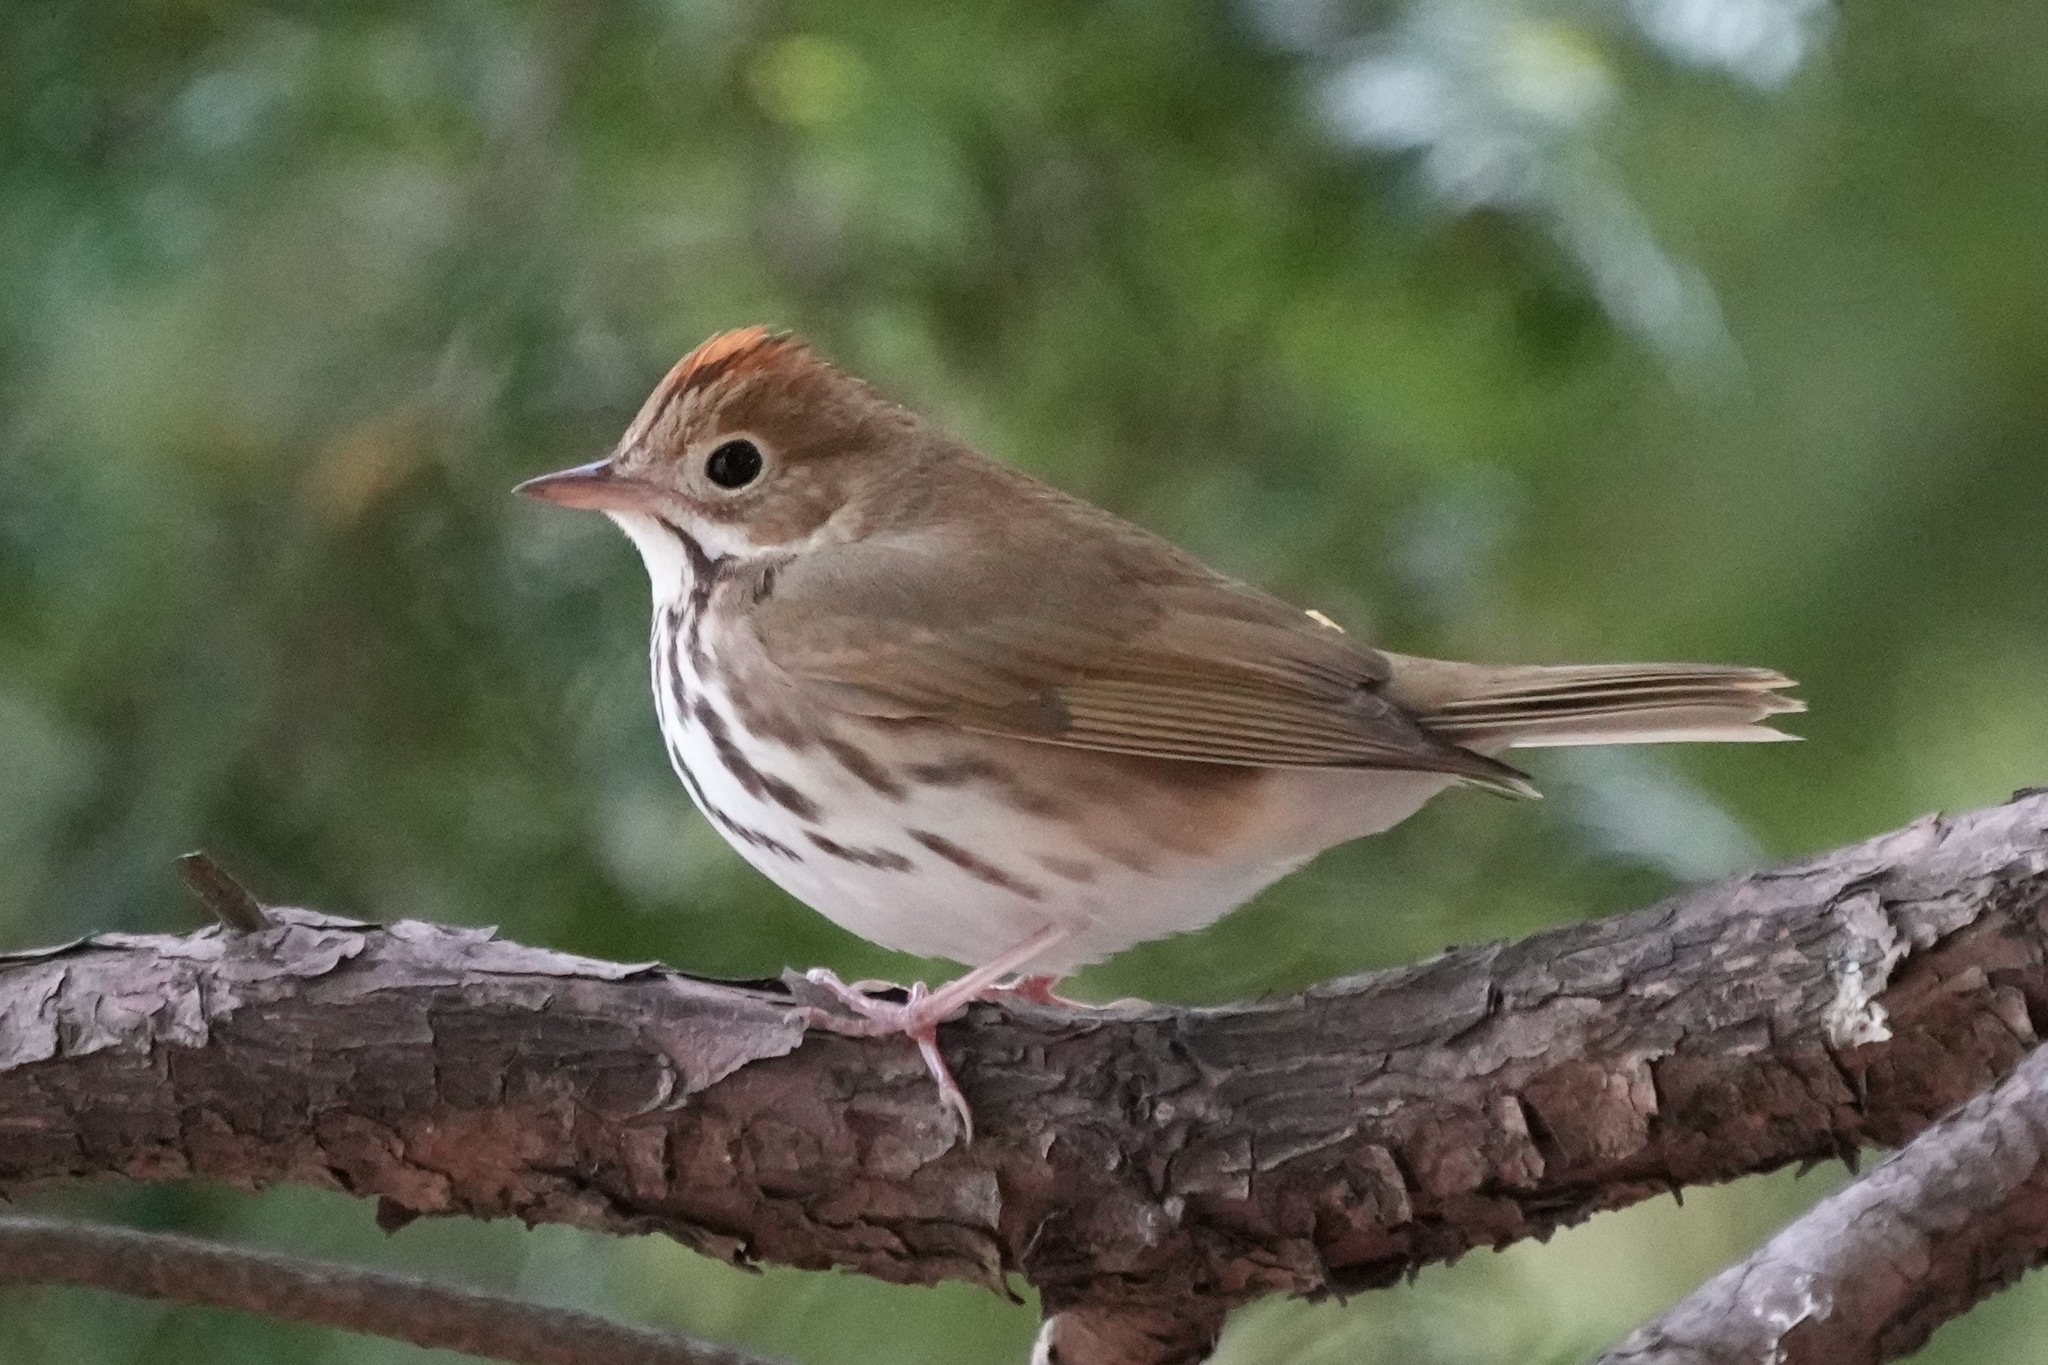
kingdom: Animalia
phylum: Chordata
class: Aves
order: Passeriformes
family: Parulidae
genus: Seiurus
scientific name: Seiurus aurocapilla
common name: Ovenbird
